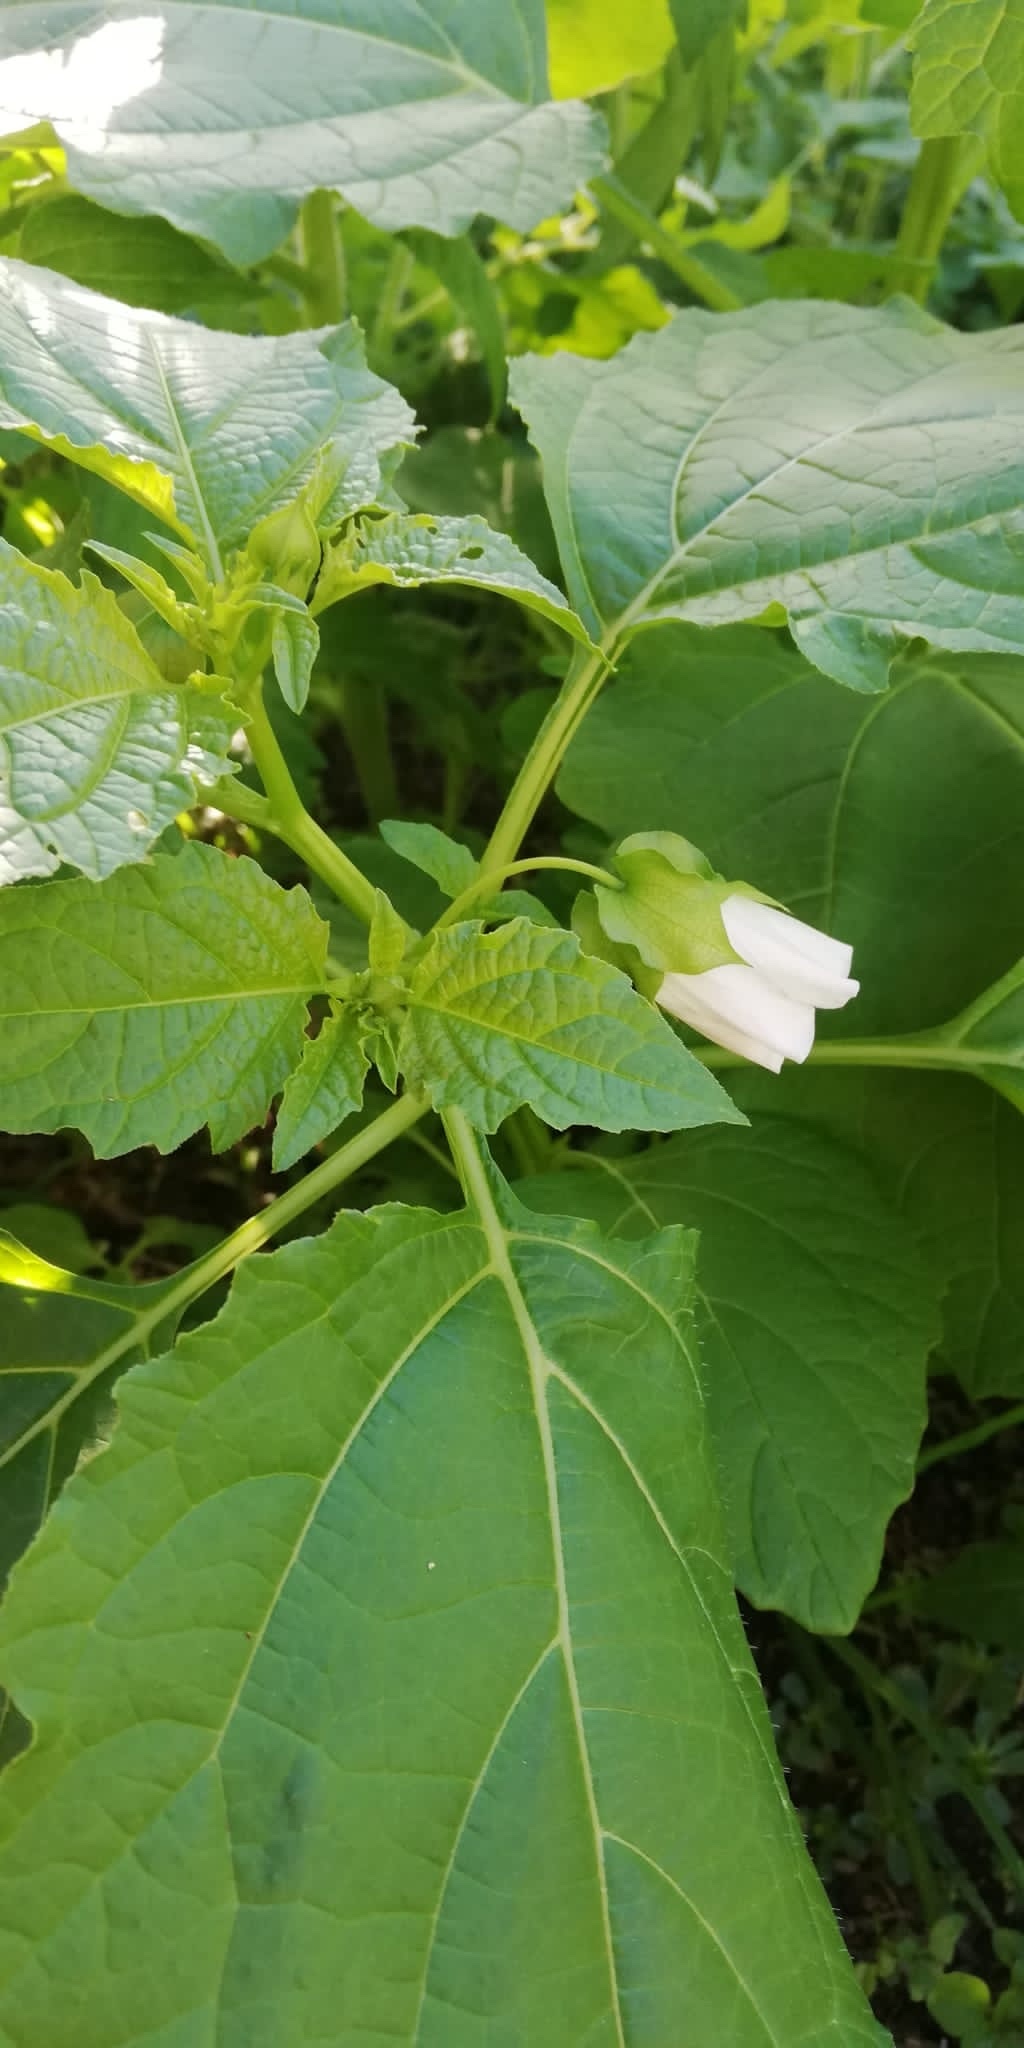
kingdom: Plantae
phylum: Tracheophyta
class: Magnoliopsida
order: Solanales
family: Solanaceae
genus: Nicandra
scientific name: Nicandra physalodes
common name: Apple-of-peru
